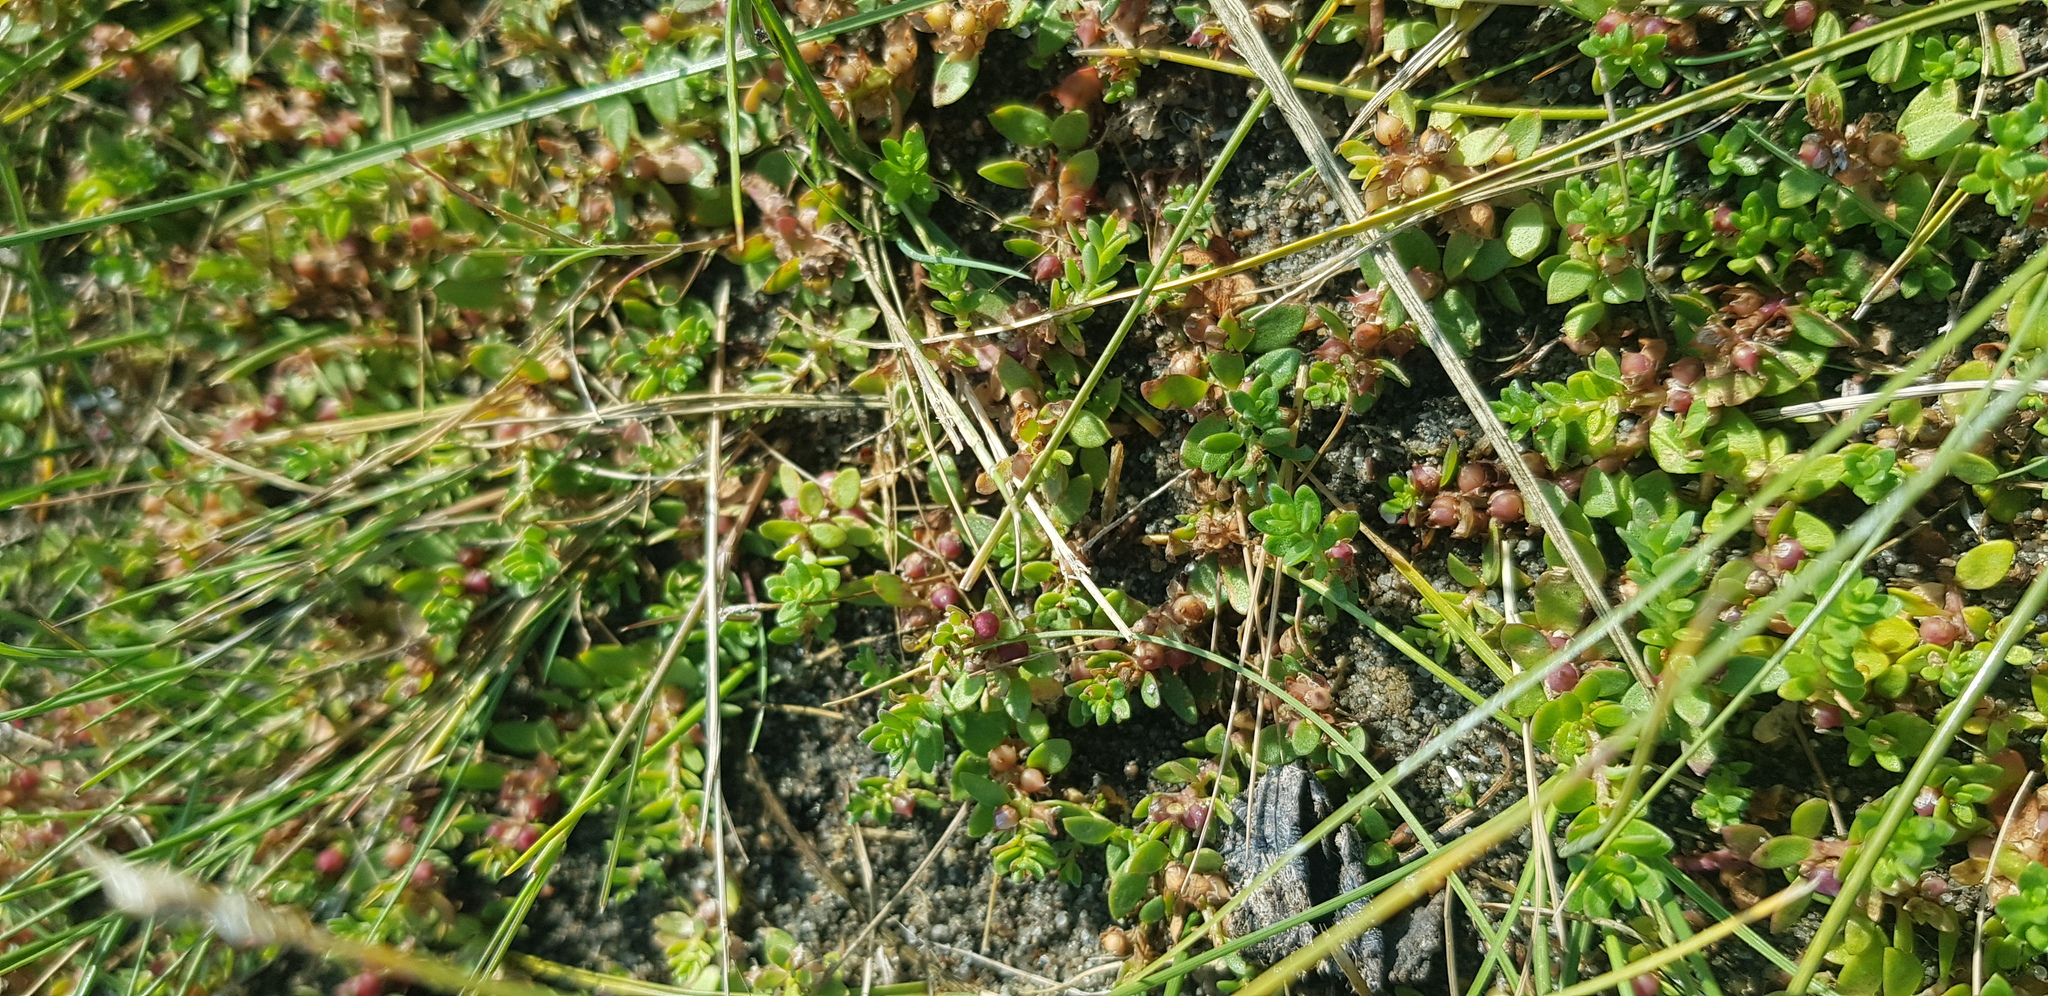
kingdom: Plantae
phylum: Tracheophyta
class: Magnoliopsida
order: Ericales
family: Primulaceae
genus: Lysimachia
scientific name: Lysimachia maritima
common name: Sea milkwort
